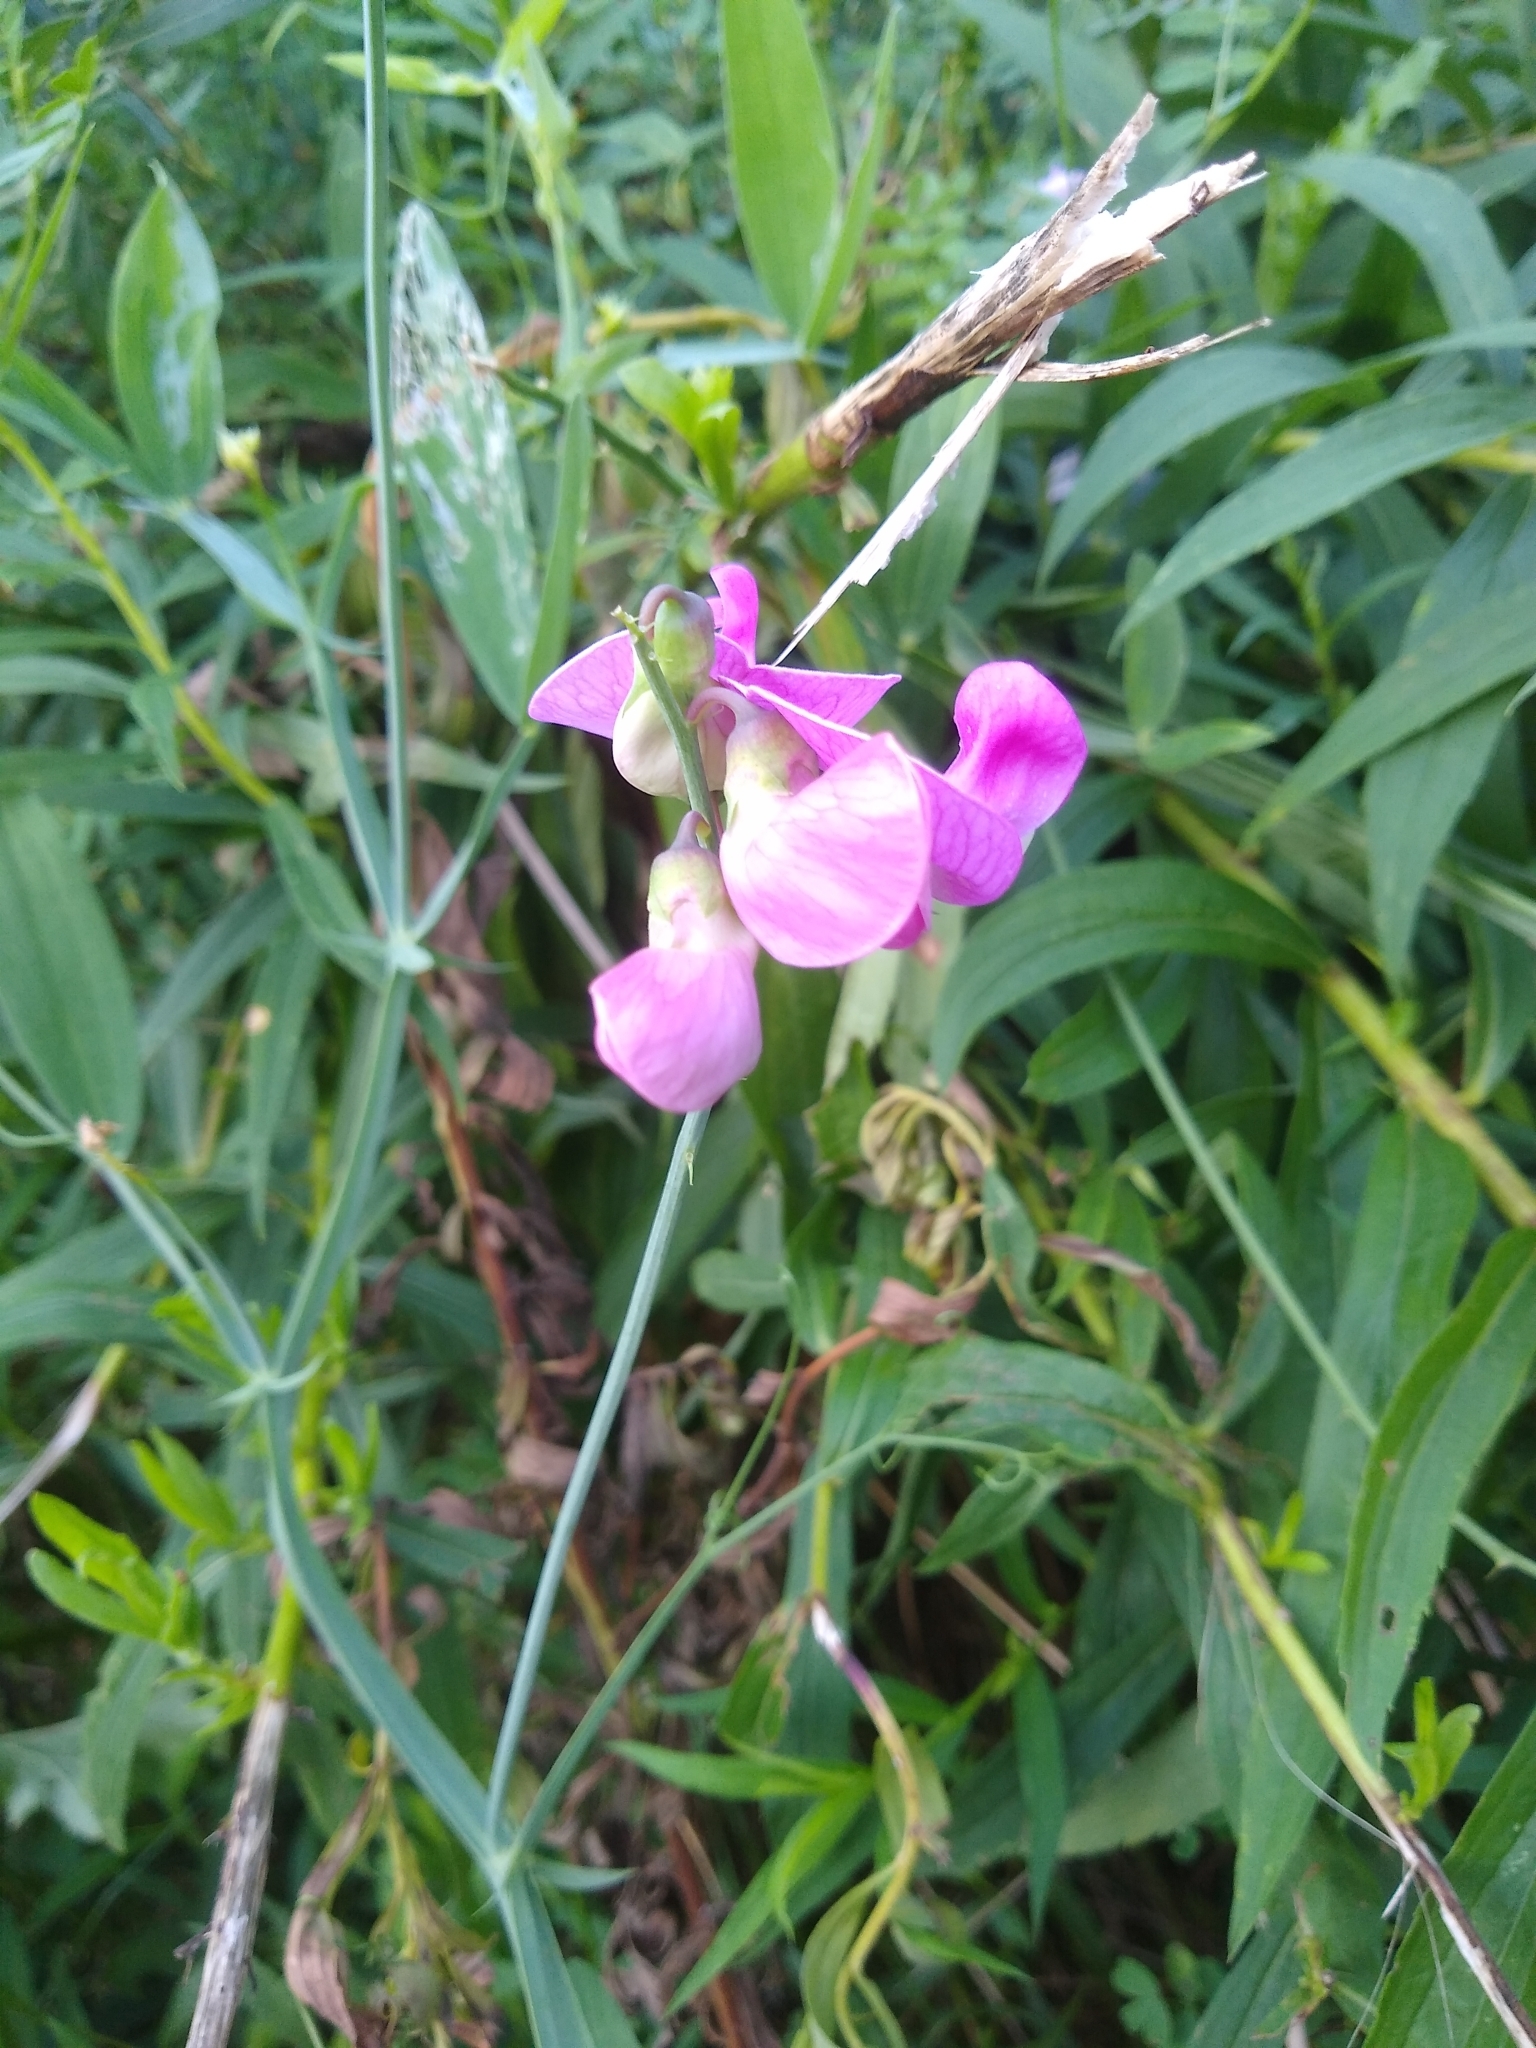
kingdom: Plantae
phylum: Tracheophyta
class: Magnoliopsida
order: Fabales
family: Fabaceae
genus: Lathyrus
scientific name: Lathyrus latifolius
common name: Perennial pea
